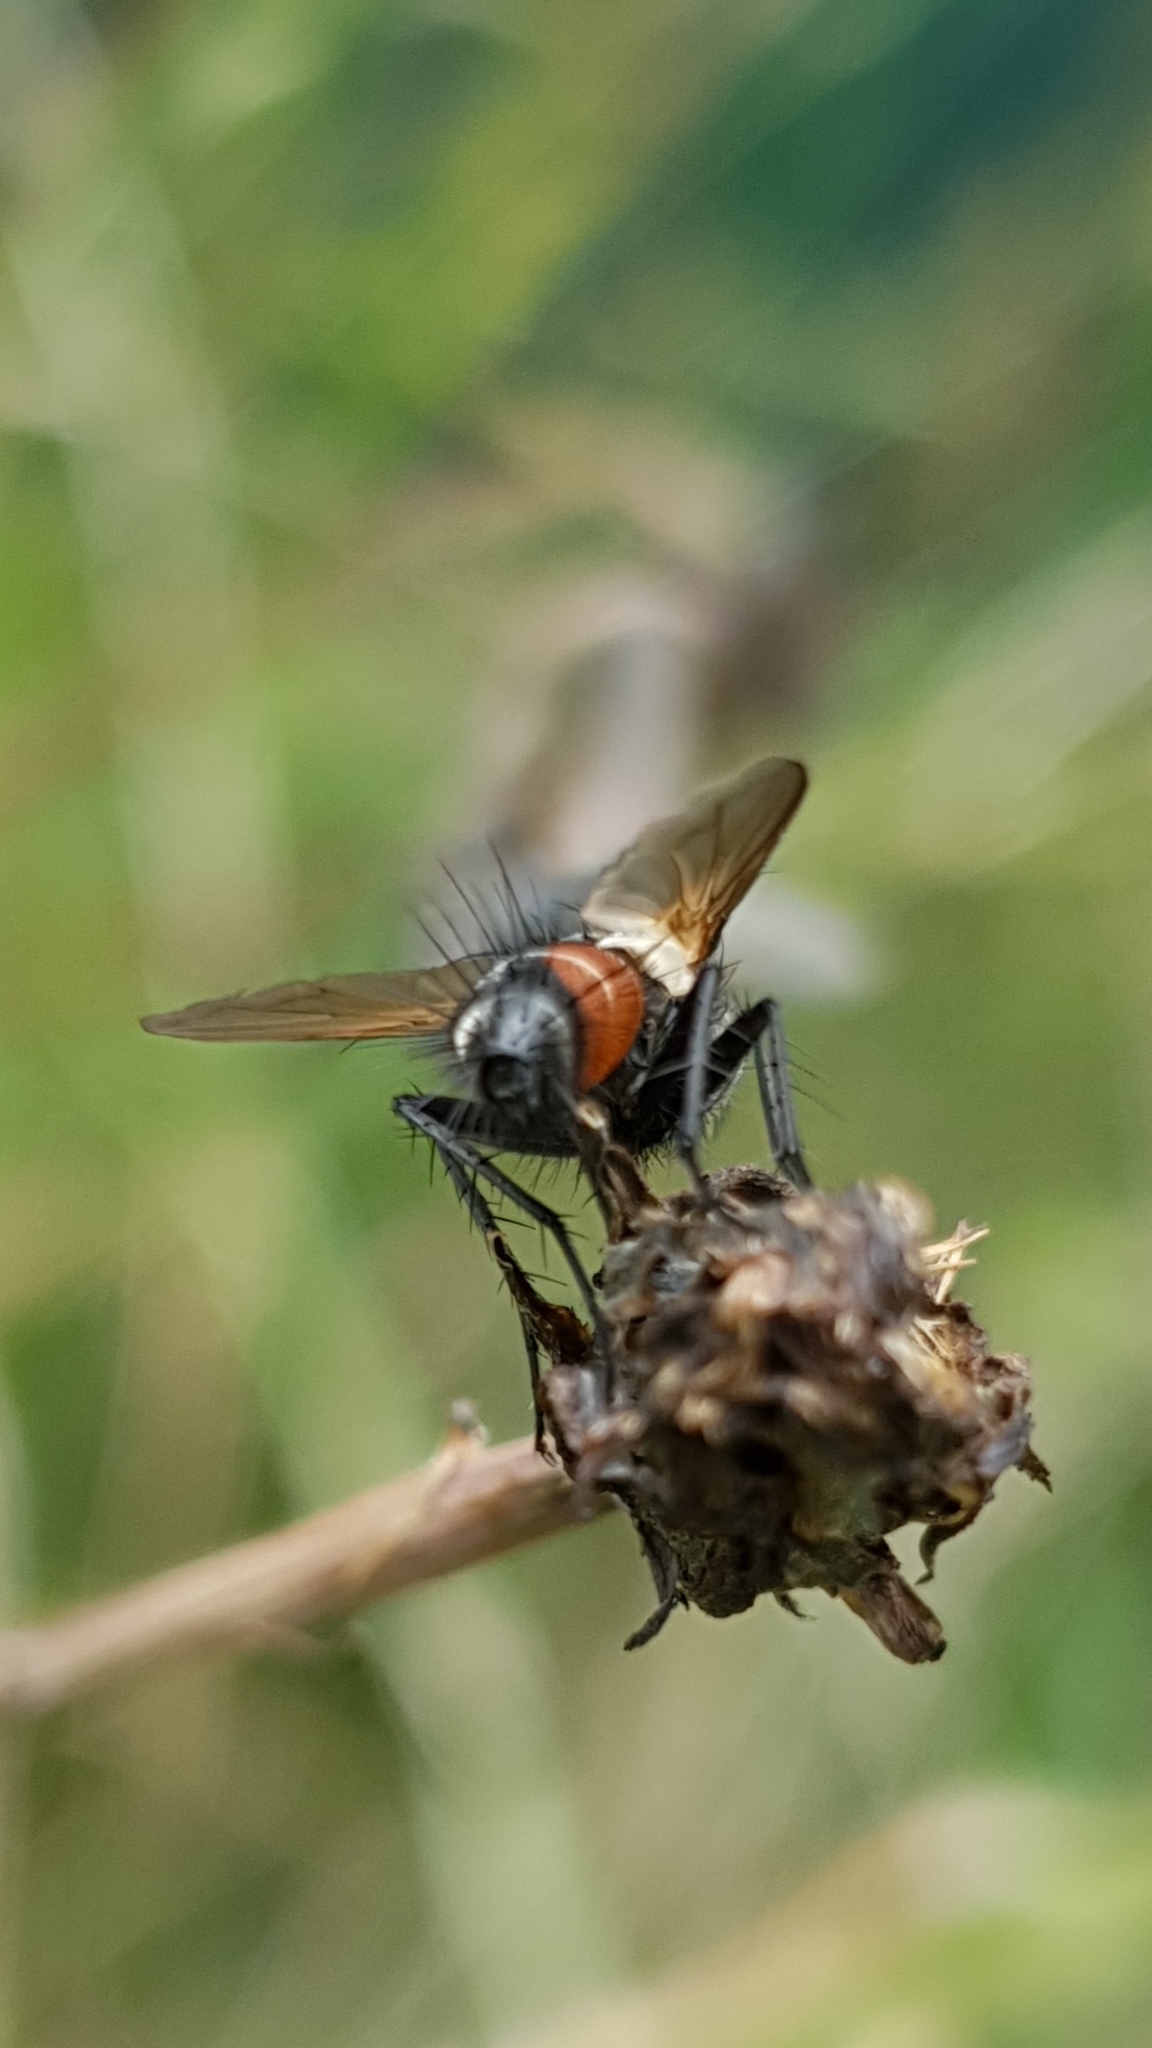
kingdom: Animalia
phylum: Arthropoda
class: Insecta
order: Diptera
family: Tachinidae
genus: Eriothrix
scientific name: Eriothrix rufomaculatus
